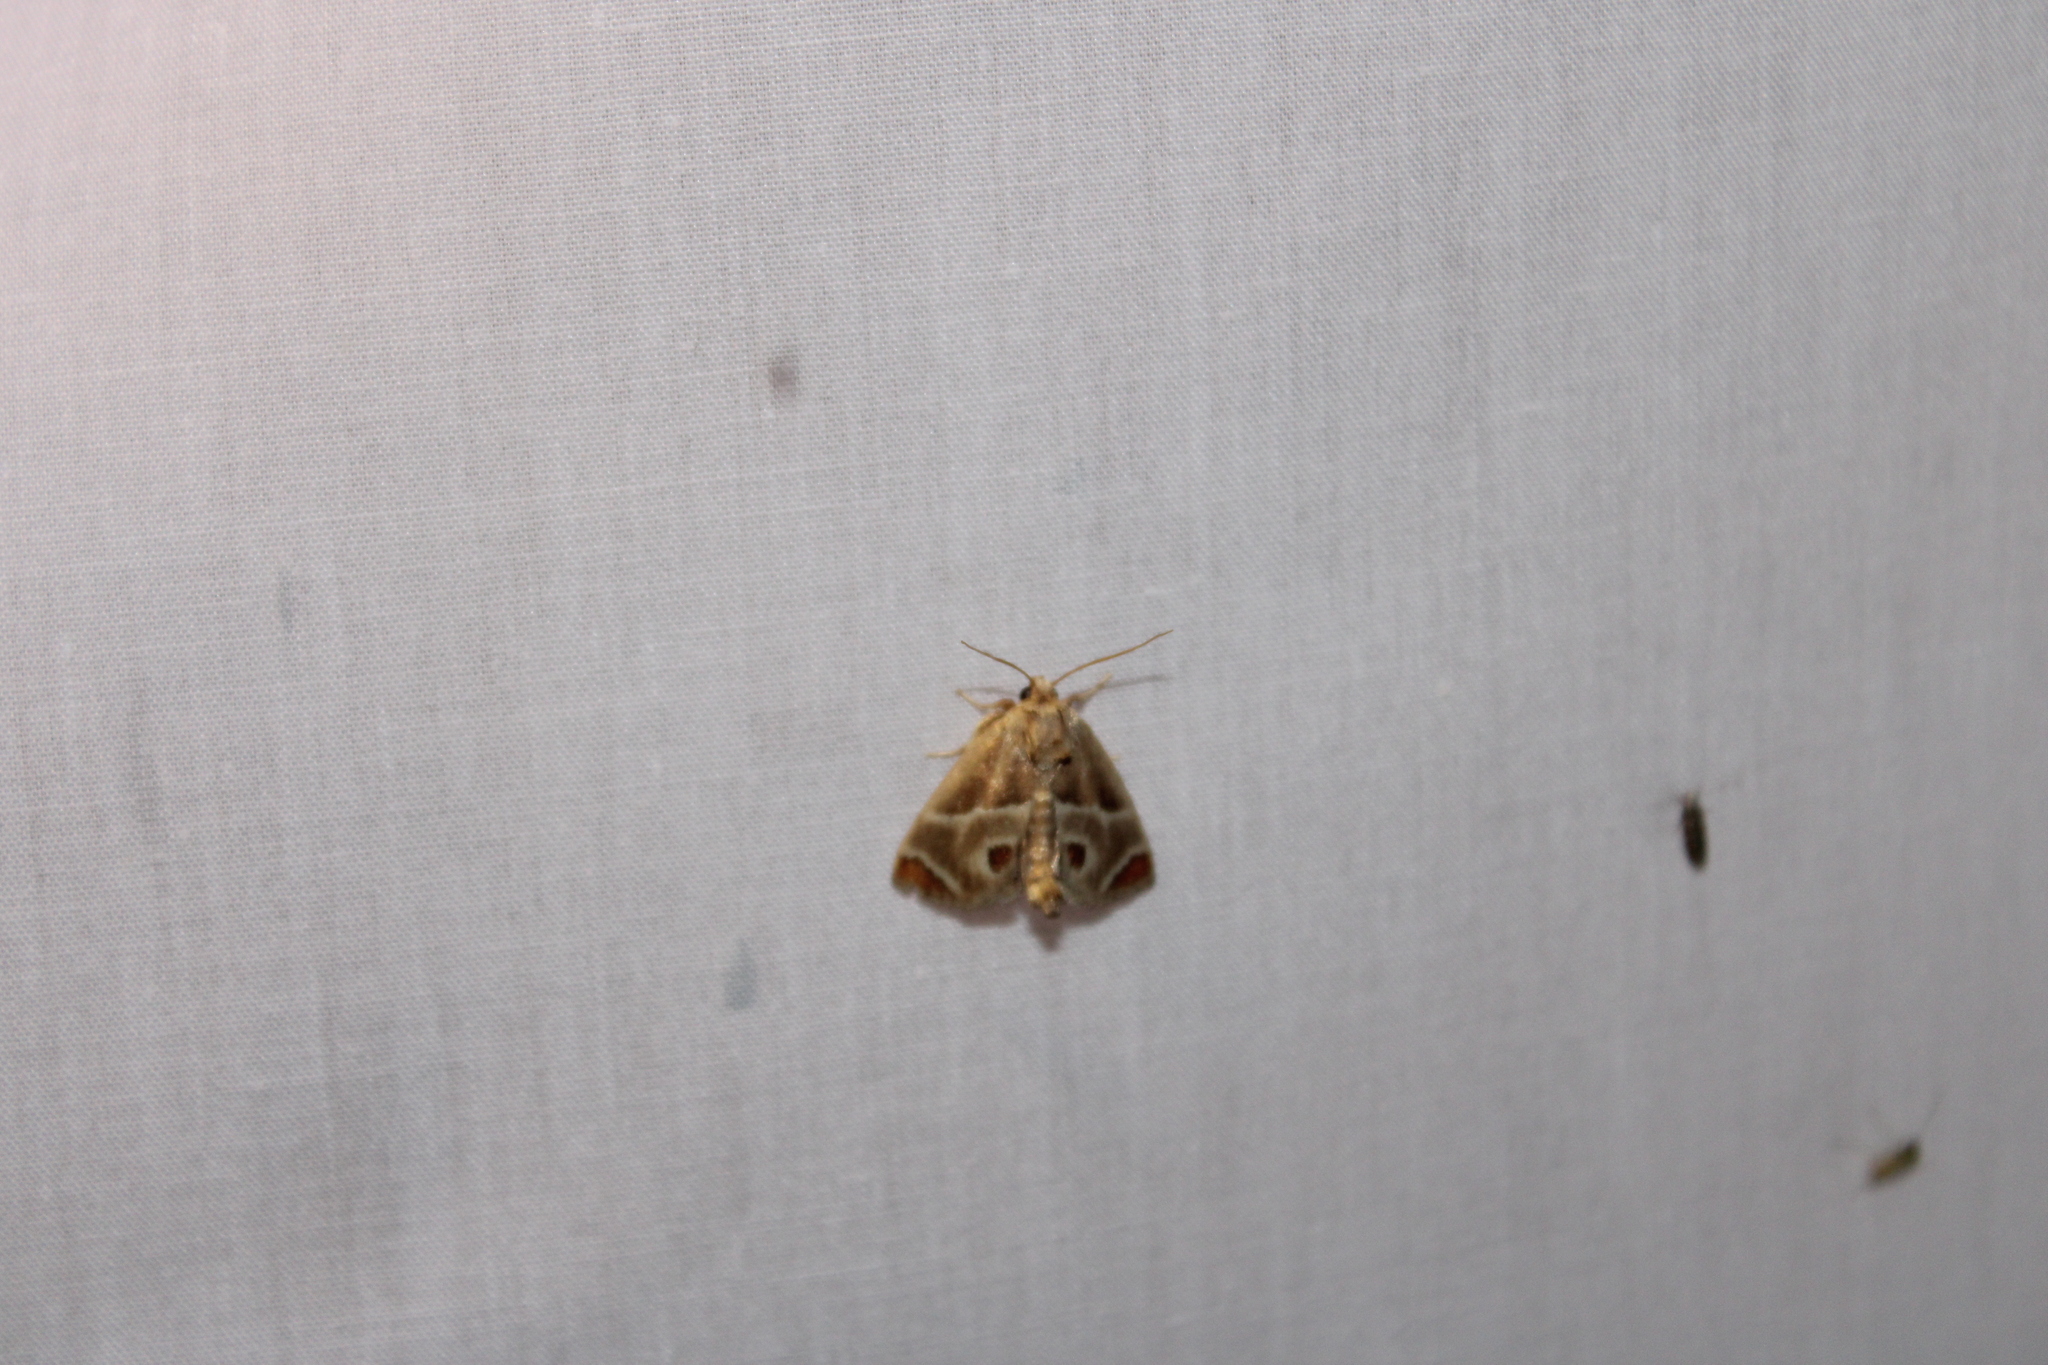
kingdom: Animalia
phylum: Arthropoda
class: Insecta
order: Lepidoptera
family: Limacodidae
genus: Apoda
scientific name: Apoda biguttata
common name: Shagreened slug moth
